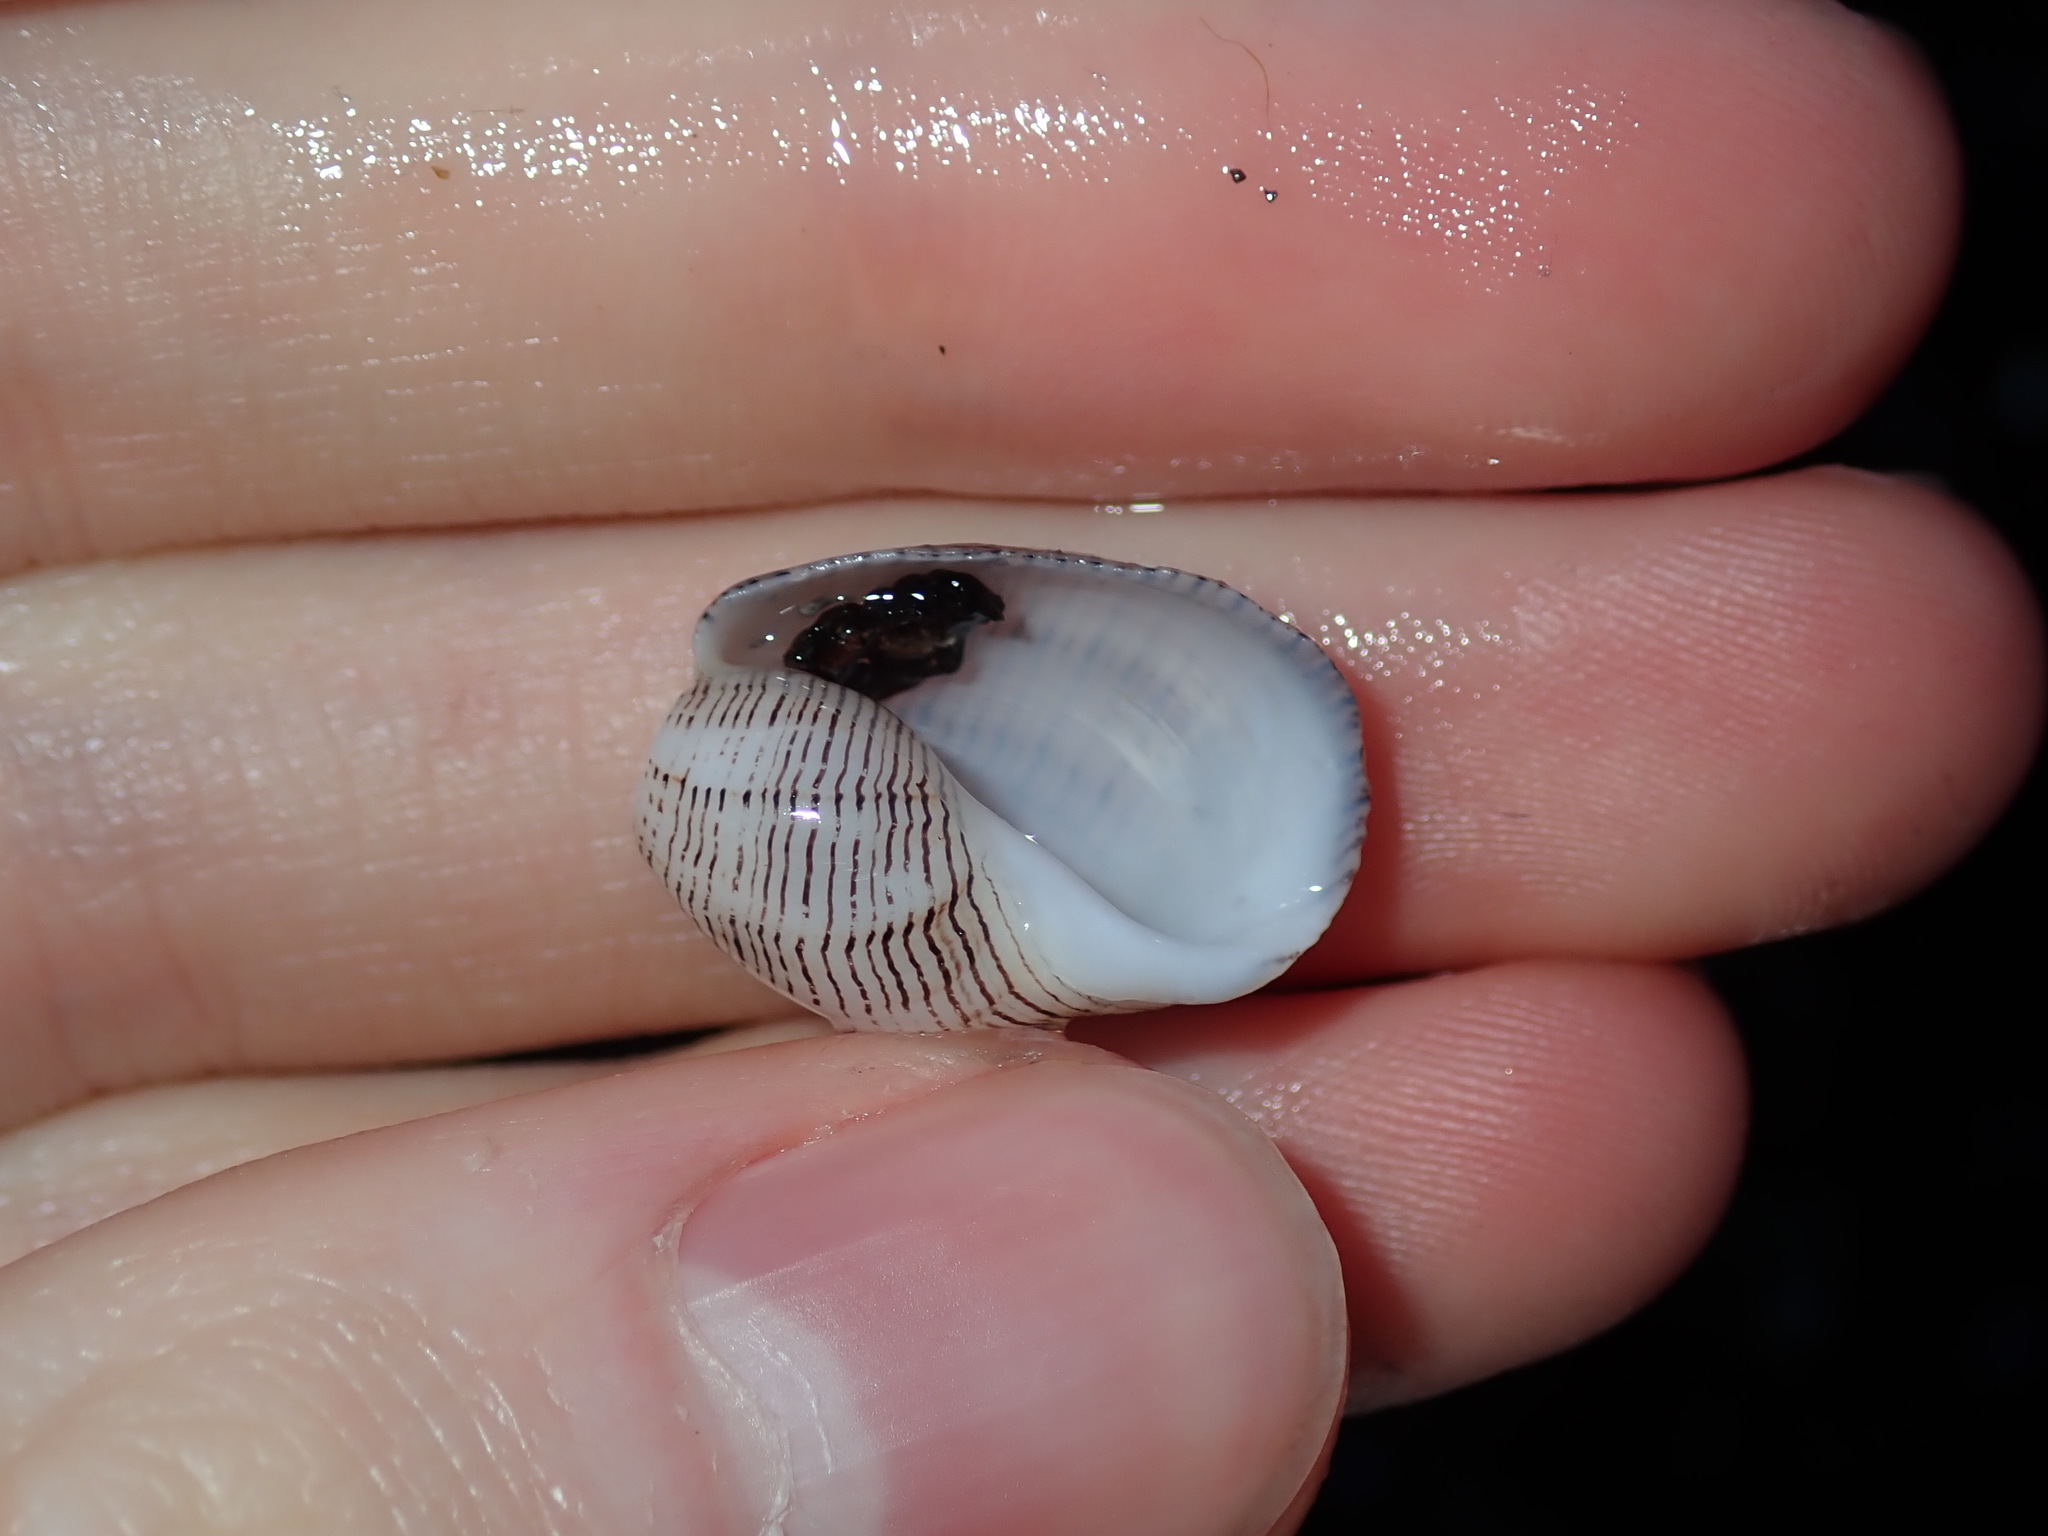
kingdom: Animalia
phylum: Mollusca
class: Gastropoda
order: Cephalaspidea
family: Aplustridae
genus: Hydatina
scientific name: Hydatina physis
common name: Brown-line paperbubble
